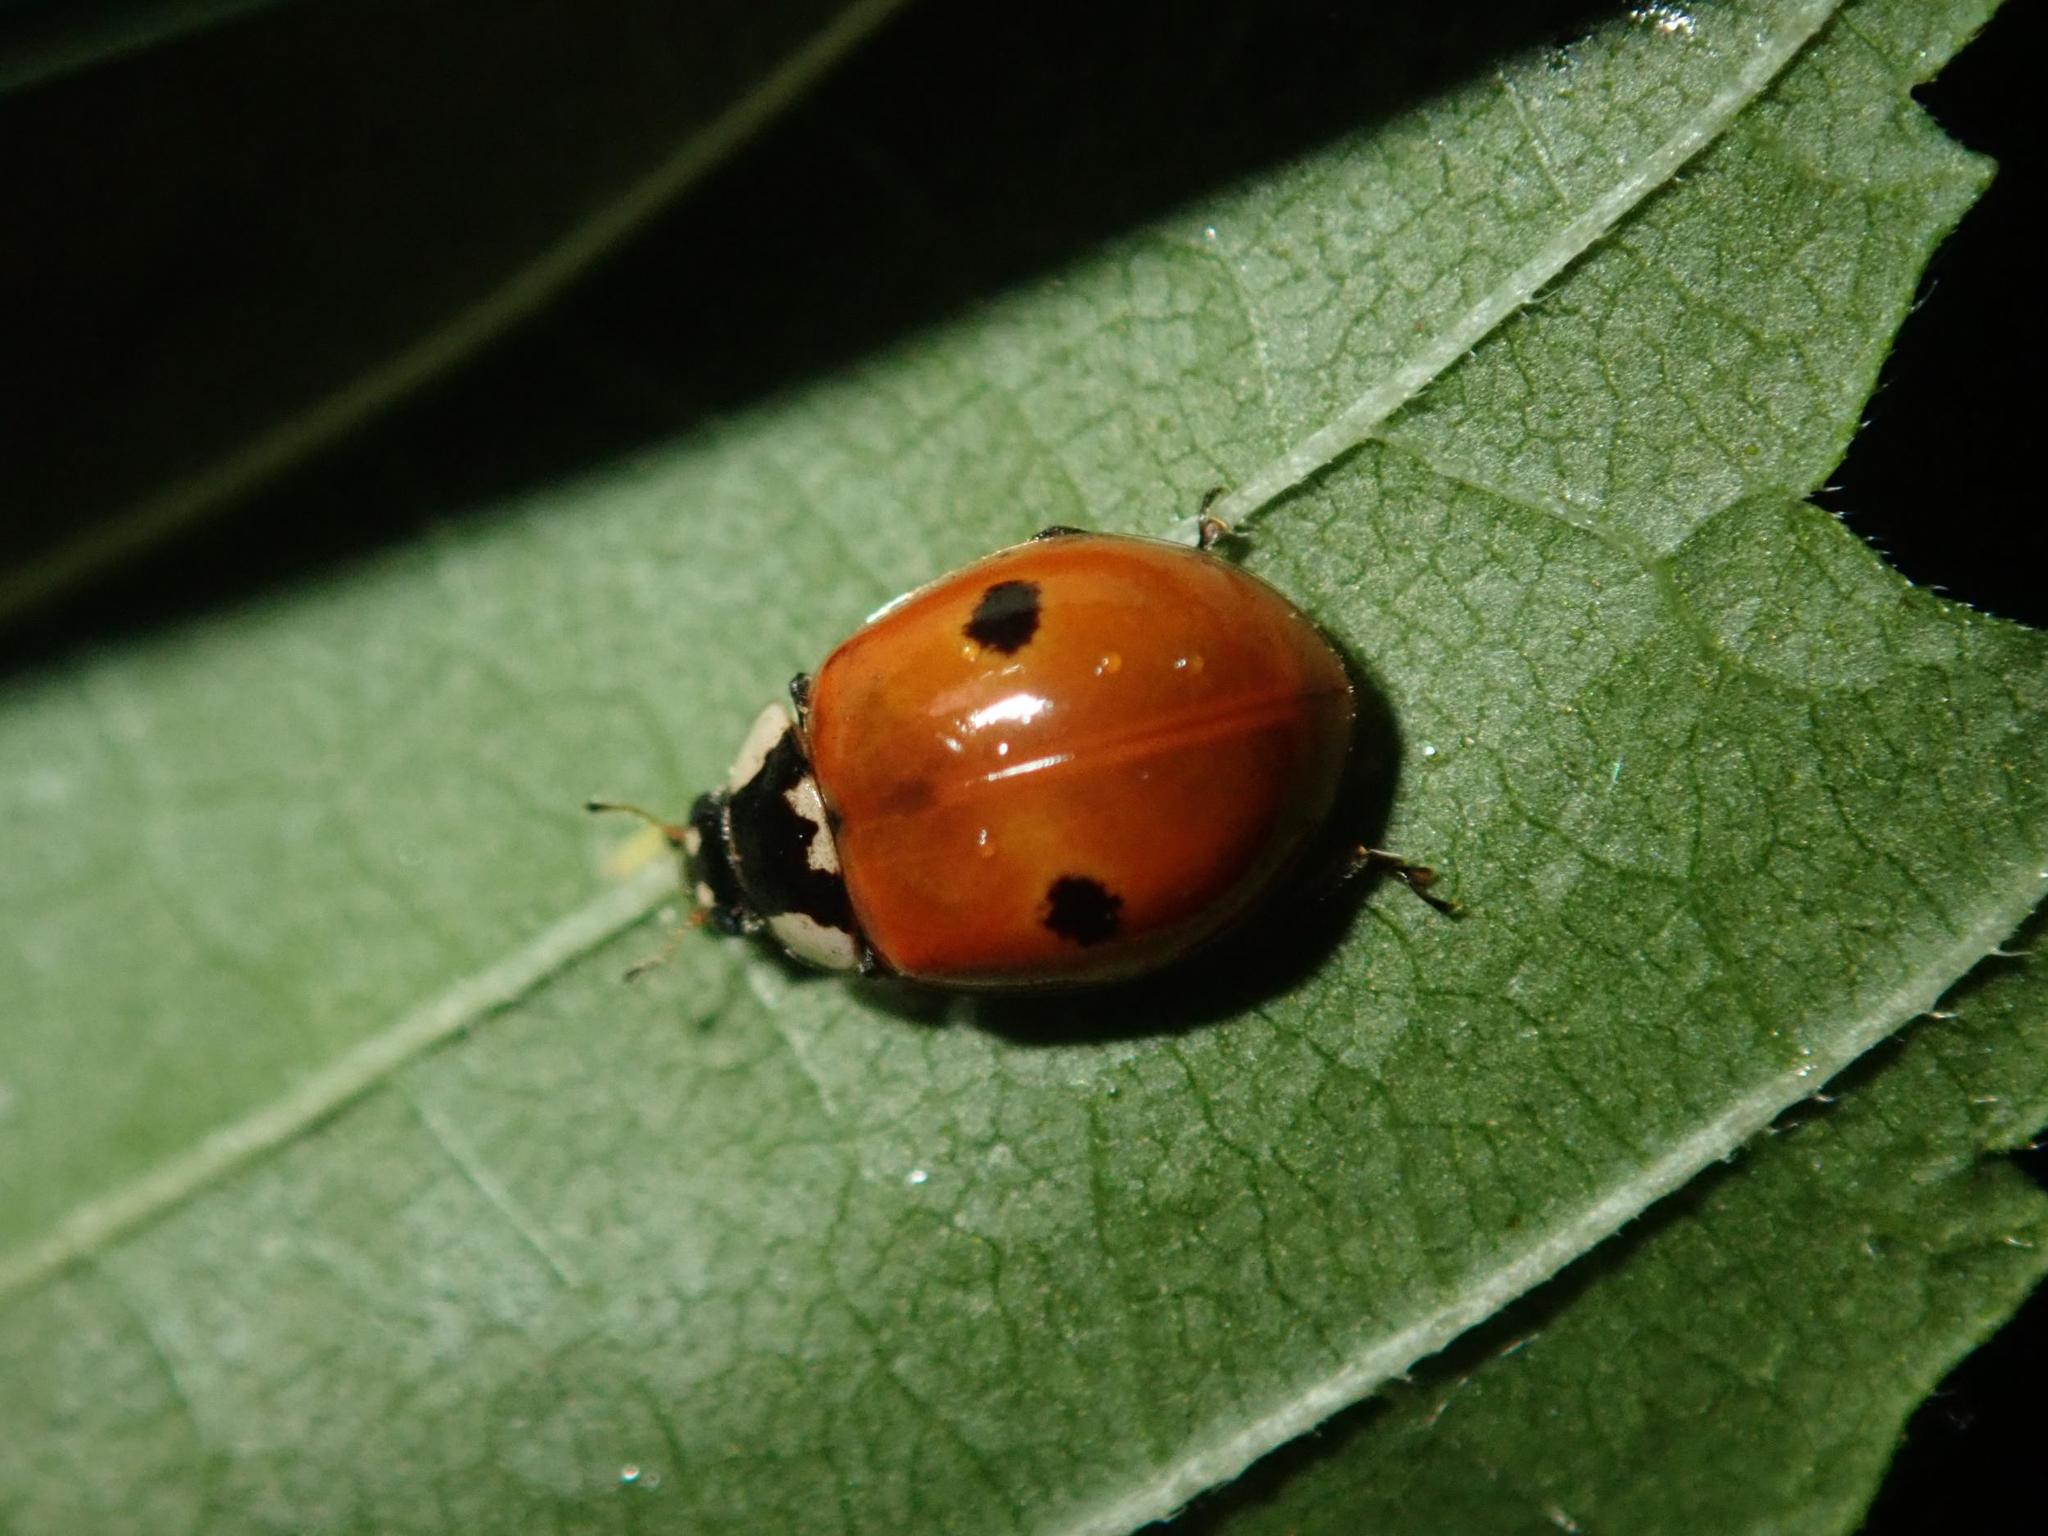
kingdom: Animalia
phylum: Arthropoda
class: Insecta
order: Coleoptera
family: Coccinellidae
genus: Adalia
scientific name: Adalia bipunctata
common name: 2-spot ladybird
